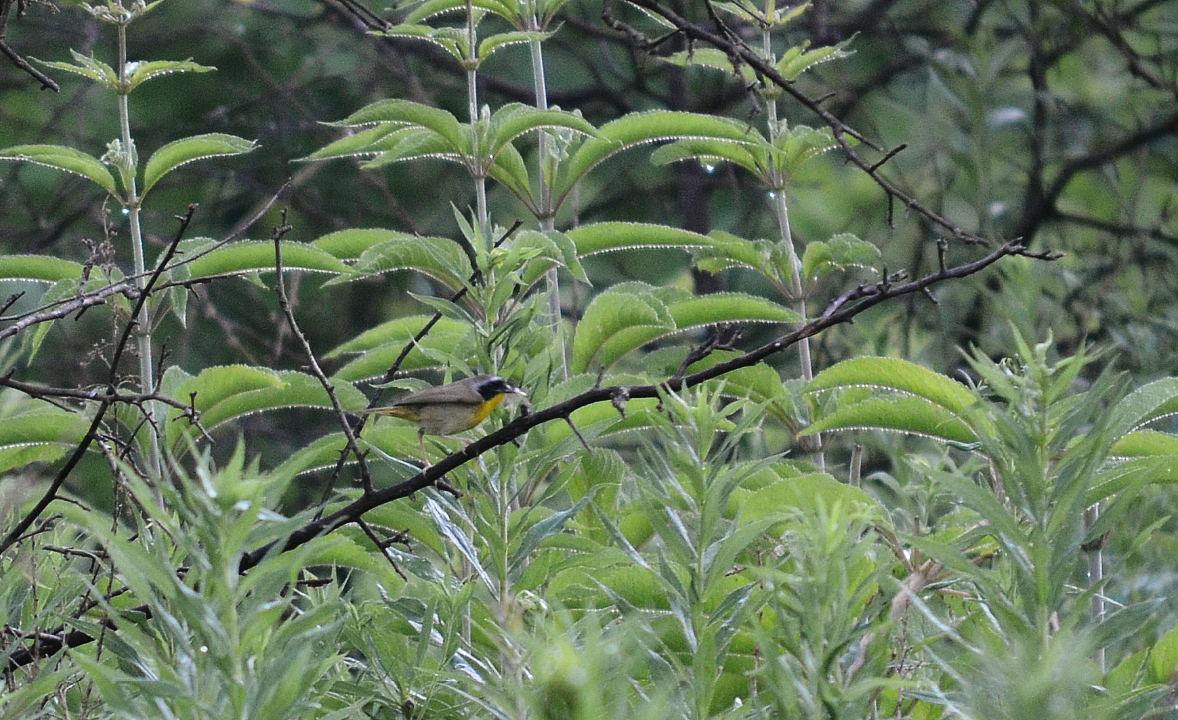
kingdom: Animalia
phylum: Chordata
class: Aves
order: Passeriformes
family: Parulidae
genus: Geothlypis
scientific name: Geothlypis trichas
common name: Common yellowthroat
